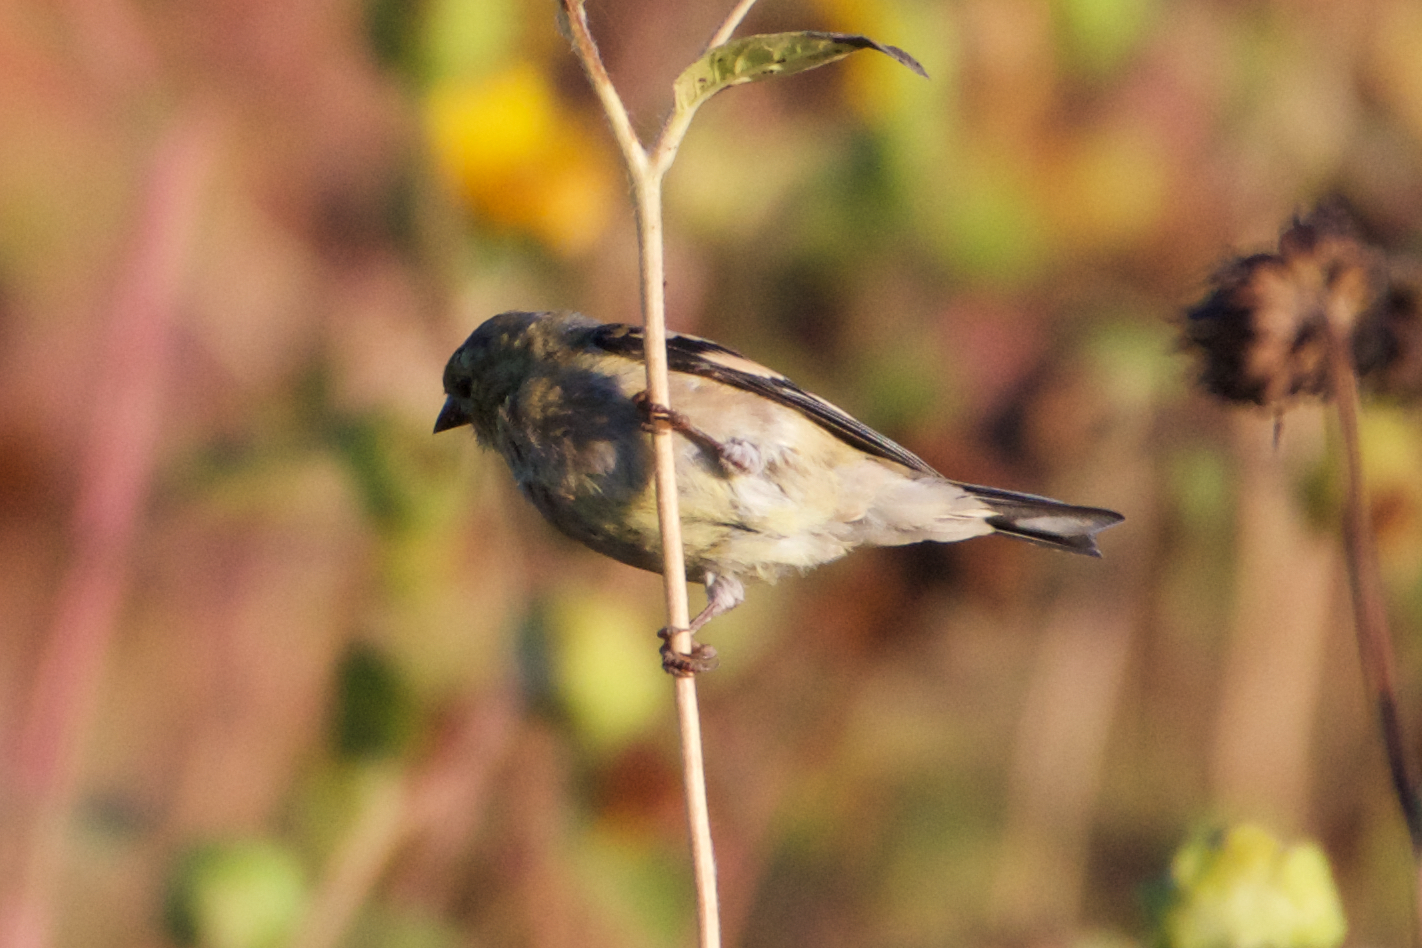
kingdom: Animalia
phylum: Chordata
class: Aves
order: Passeriformes
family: Fringillidae
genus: Spinus
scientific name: Spinus tristis
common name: American goldfinch
